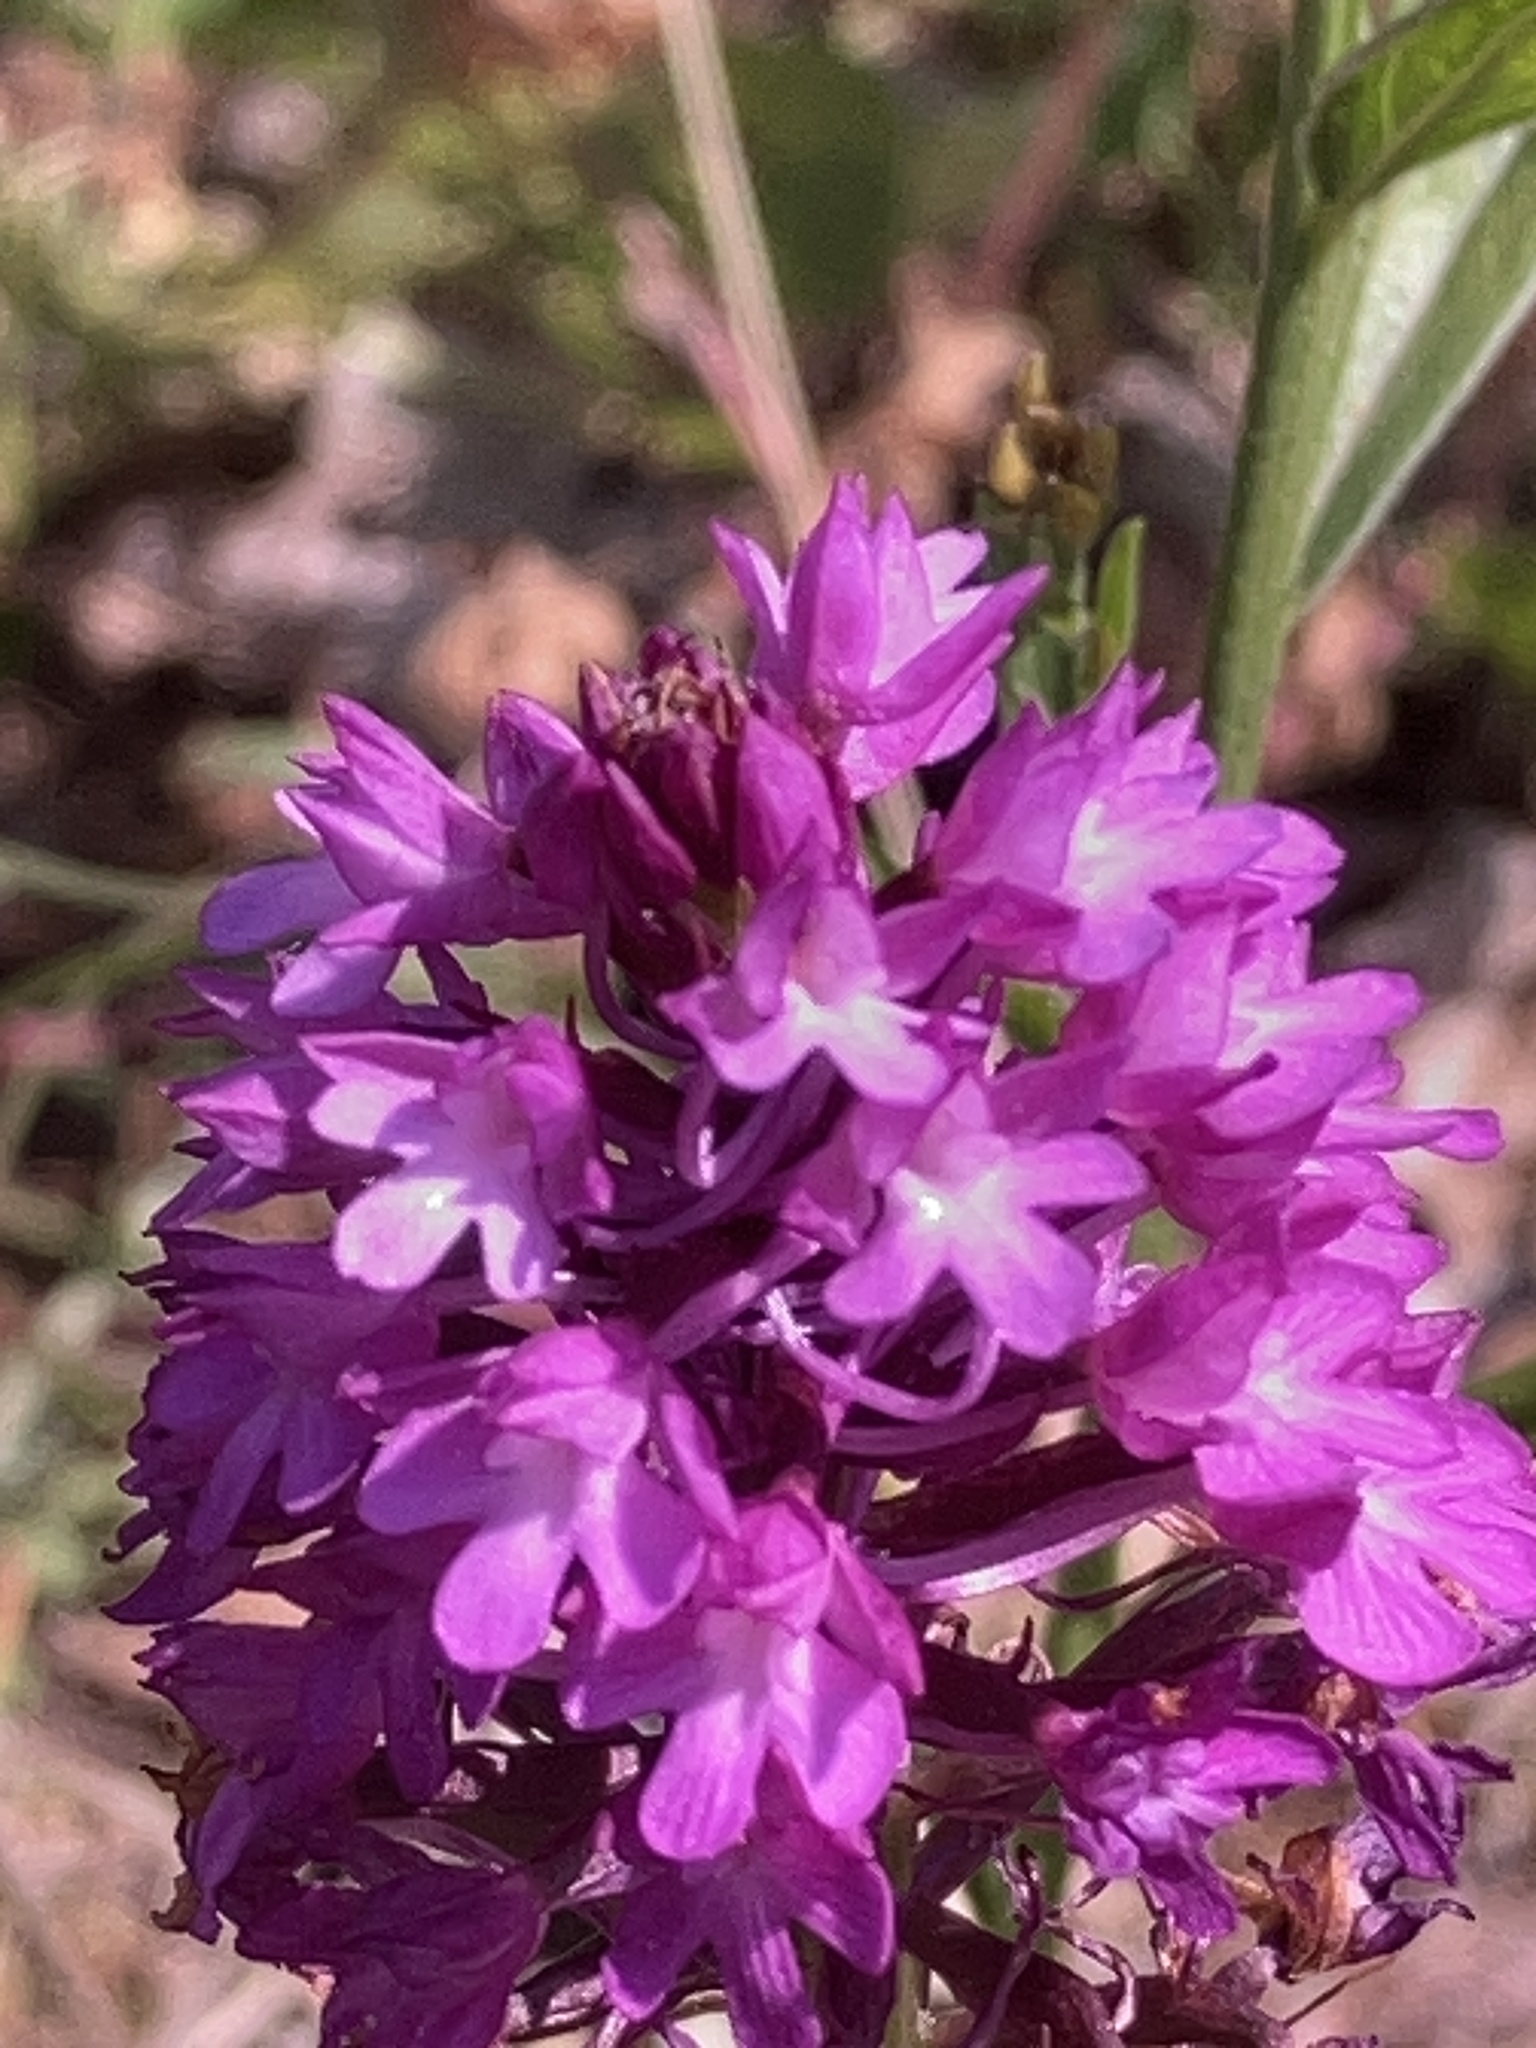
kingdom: Plantae
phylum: Tracheophyta
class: Liliopsida
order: Asparagales
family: Orchidaceae
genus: Anacamptis
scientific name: Anacamptis pyramidalis
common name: Pyramidal orchid
